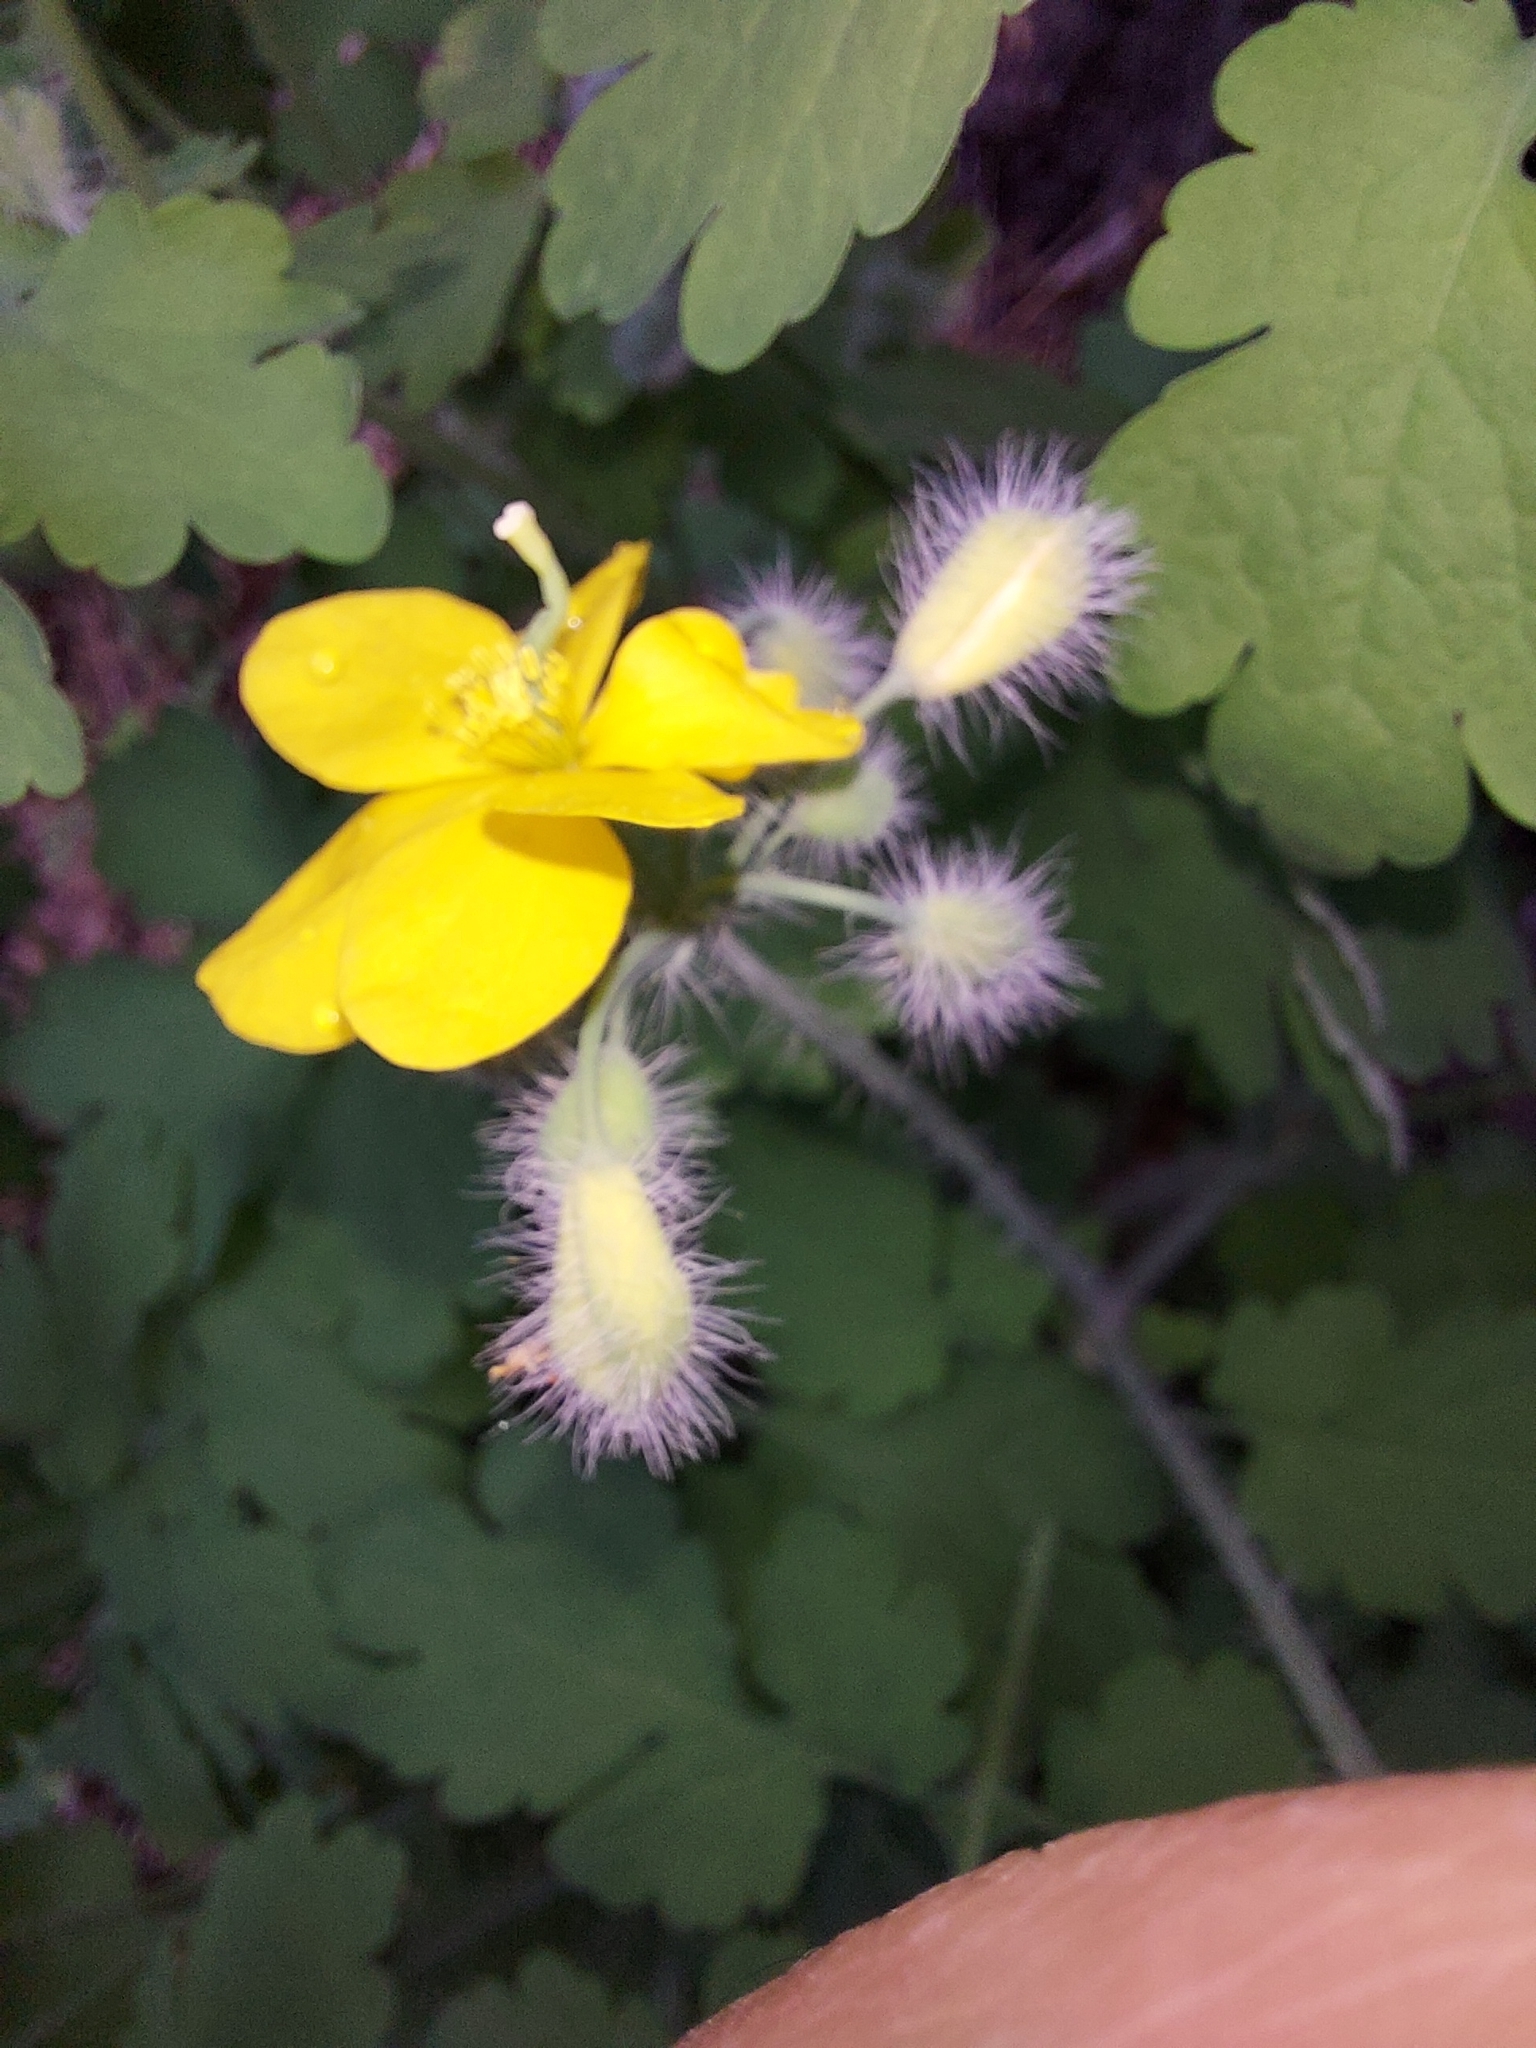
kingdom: Plantae
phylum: Tracheophyta
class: Magnoliopsida
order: Ranunculales
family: Papaveraceae
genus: Chelidonium
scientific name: Chelidonium majus
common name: Greater celandine
